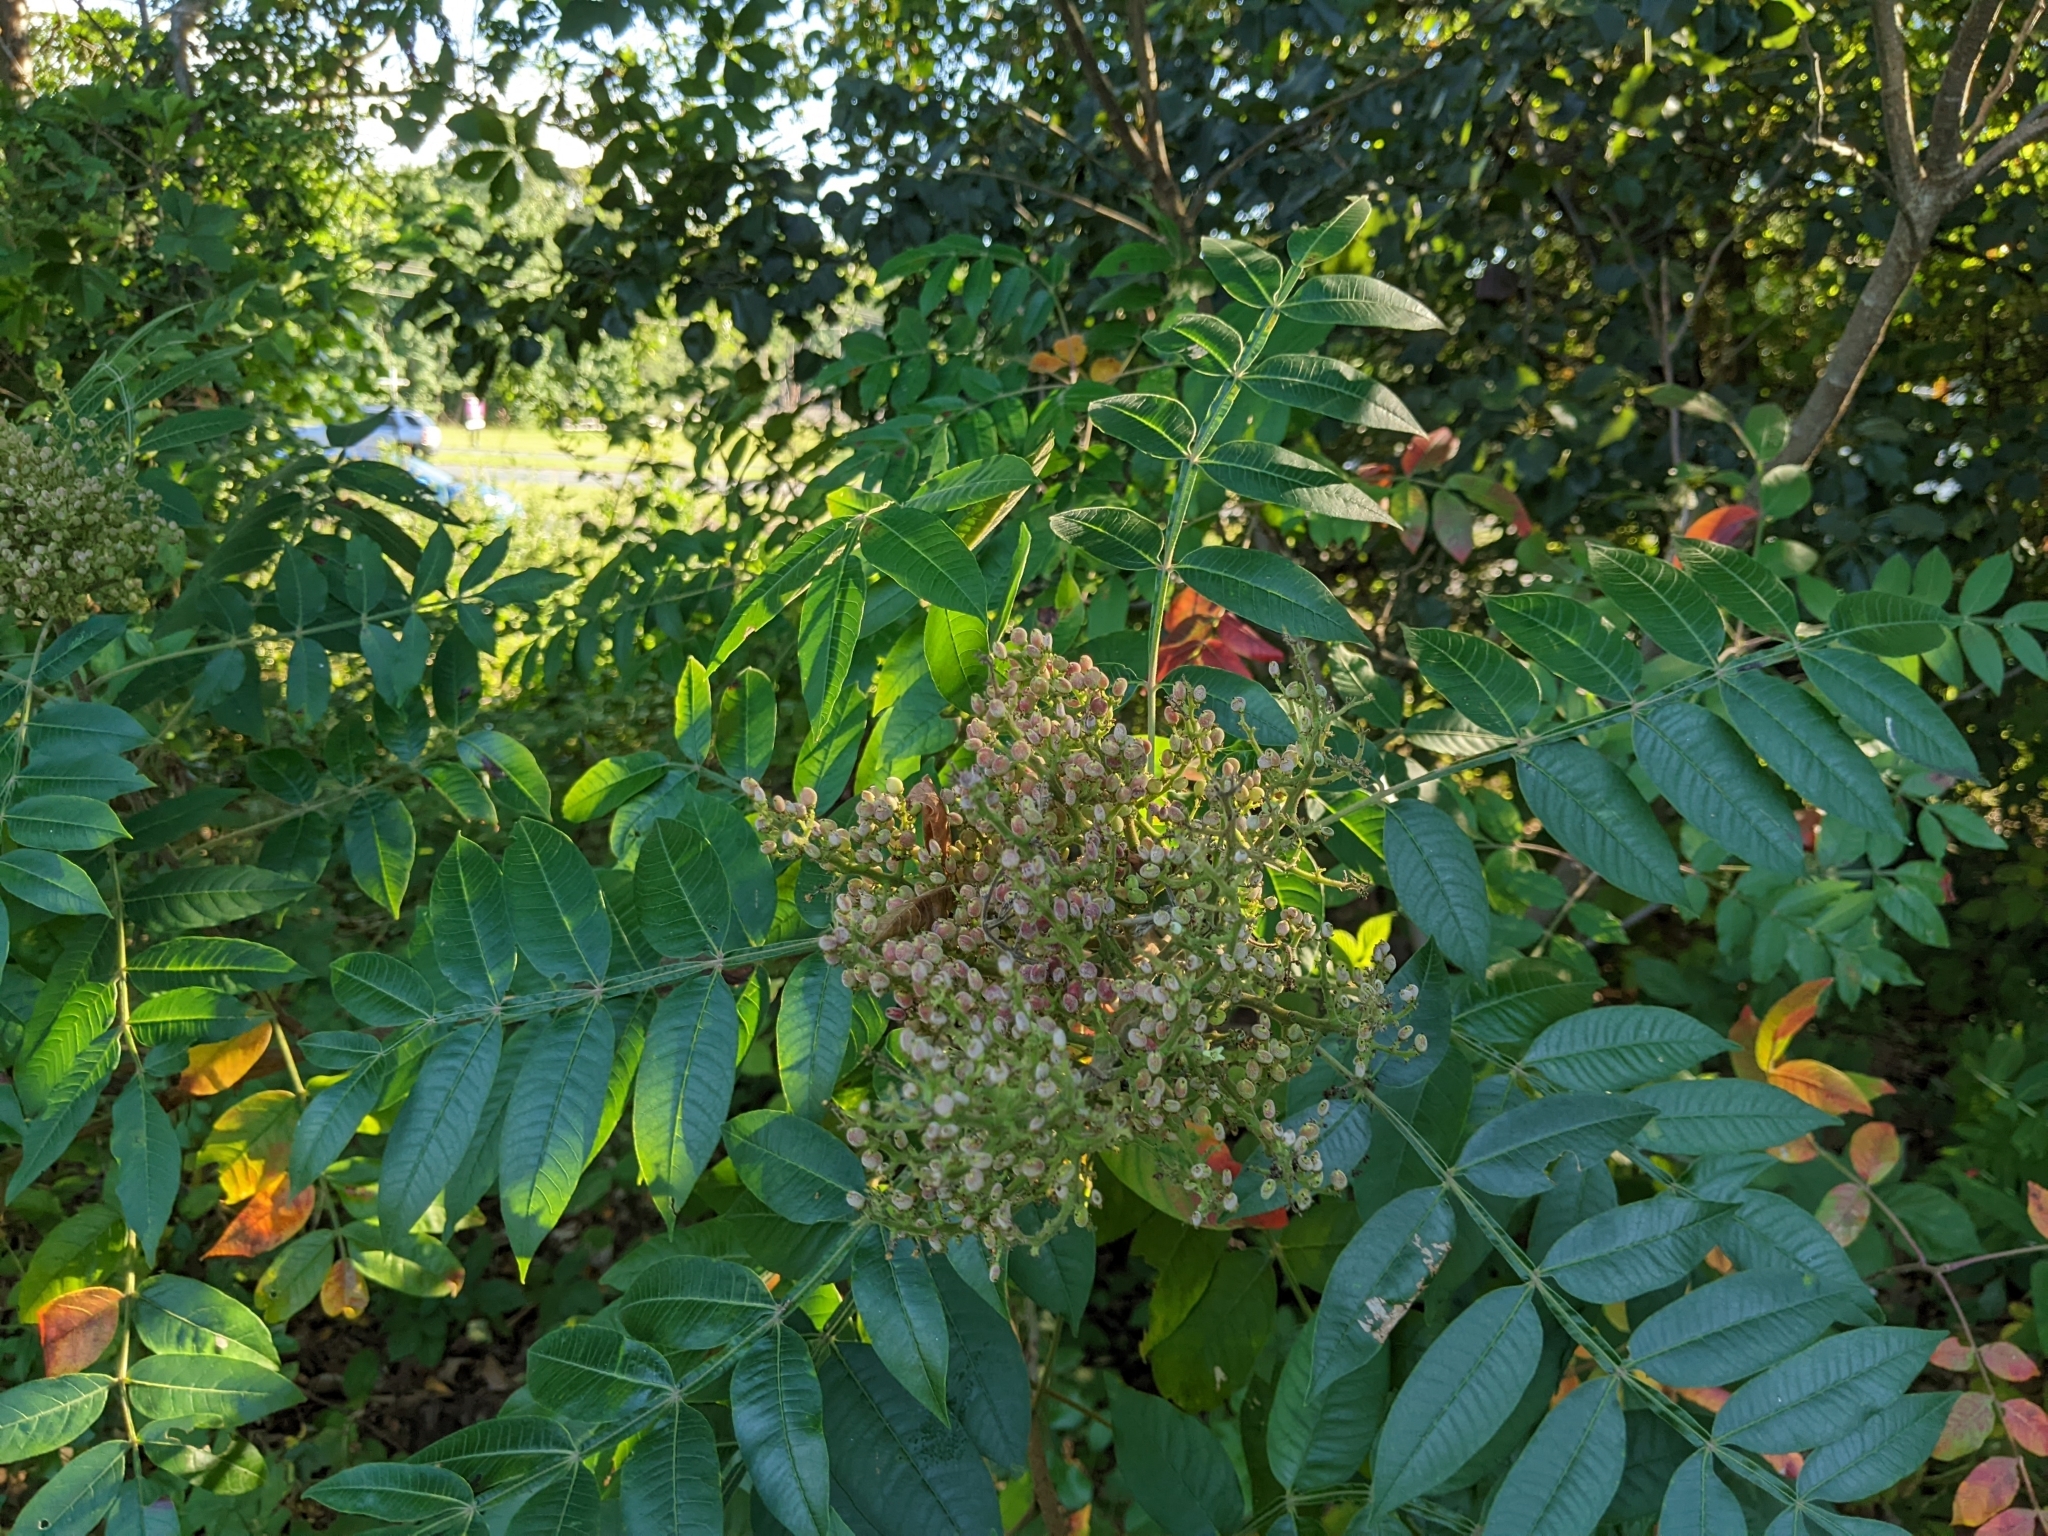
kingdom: Plantae
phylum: Tracheophyta
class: Magnoliopsida
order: Sapindales
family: Anacardiaceae
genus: Rhus
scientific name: Rhus copallina
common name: Shining sumac
